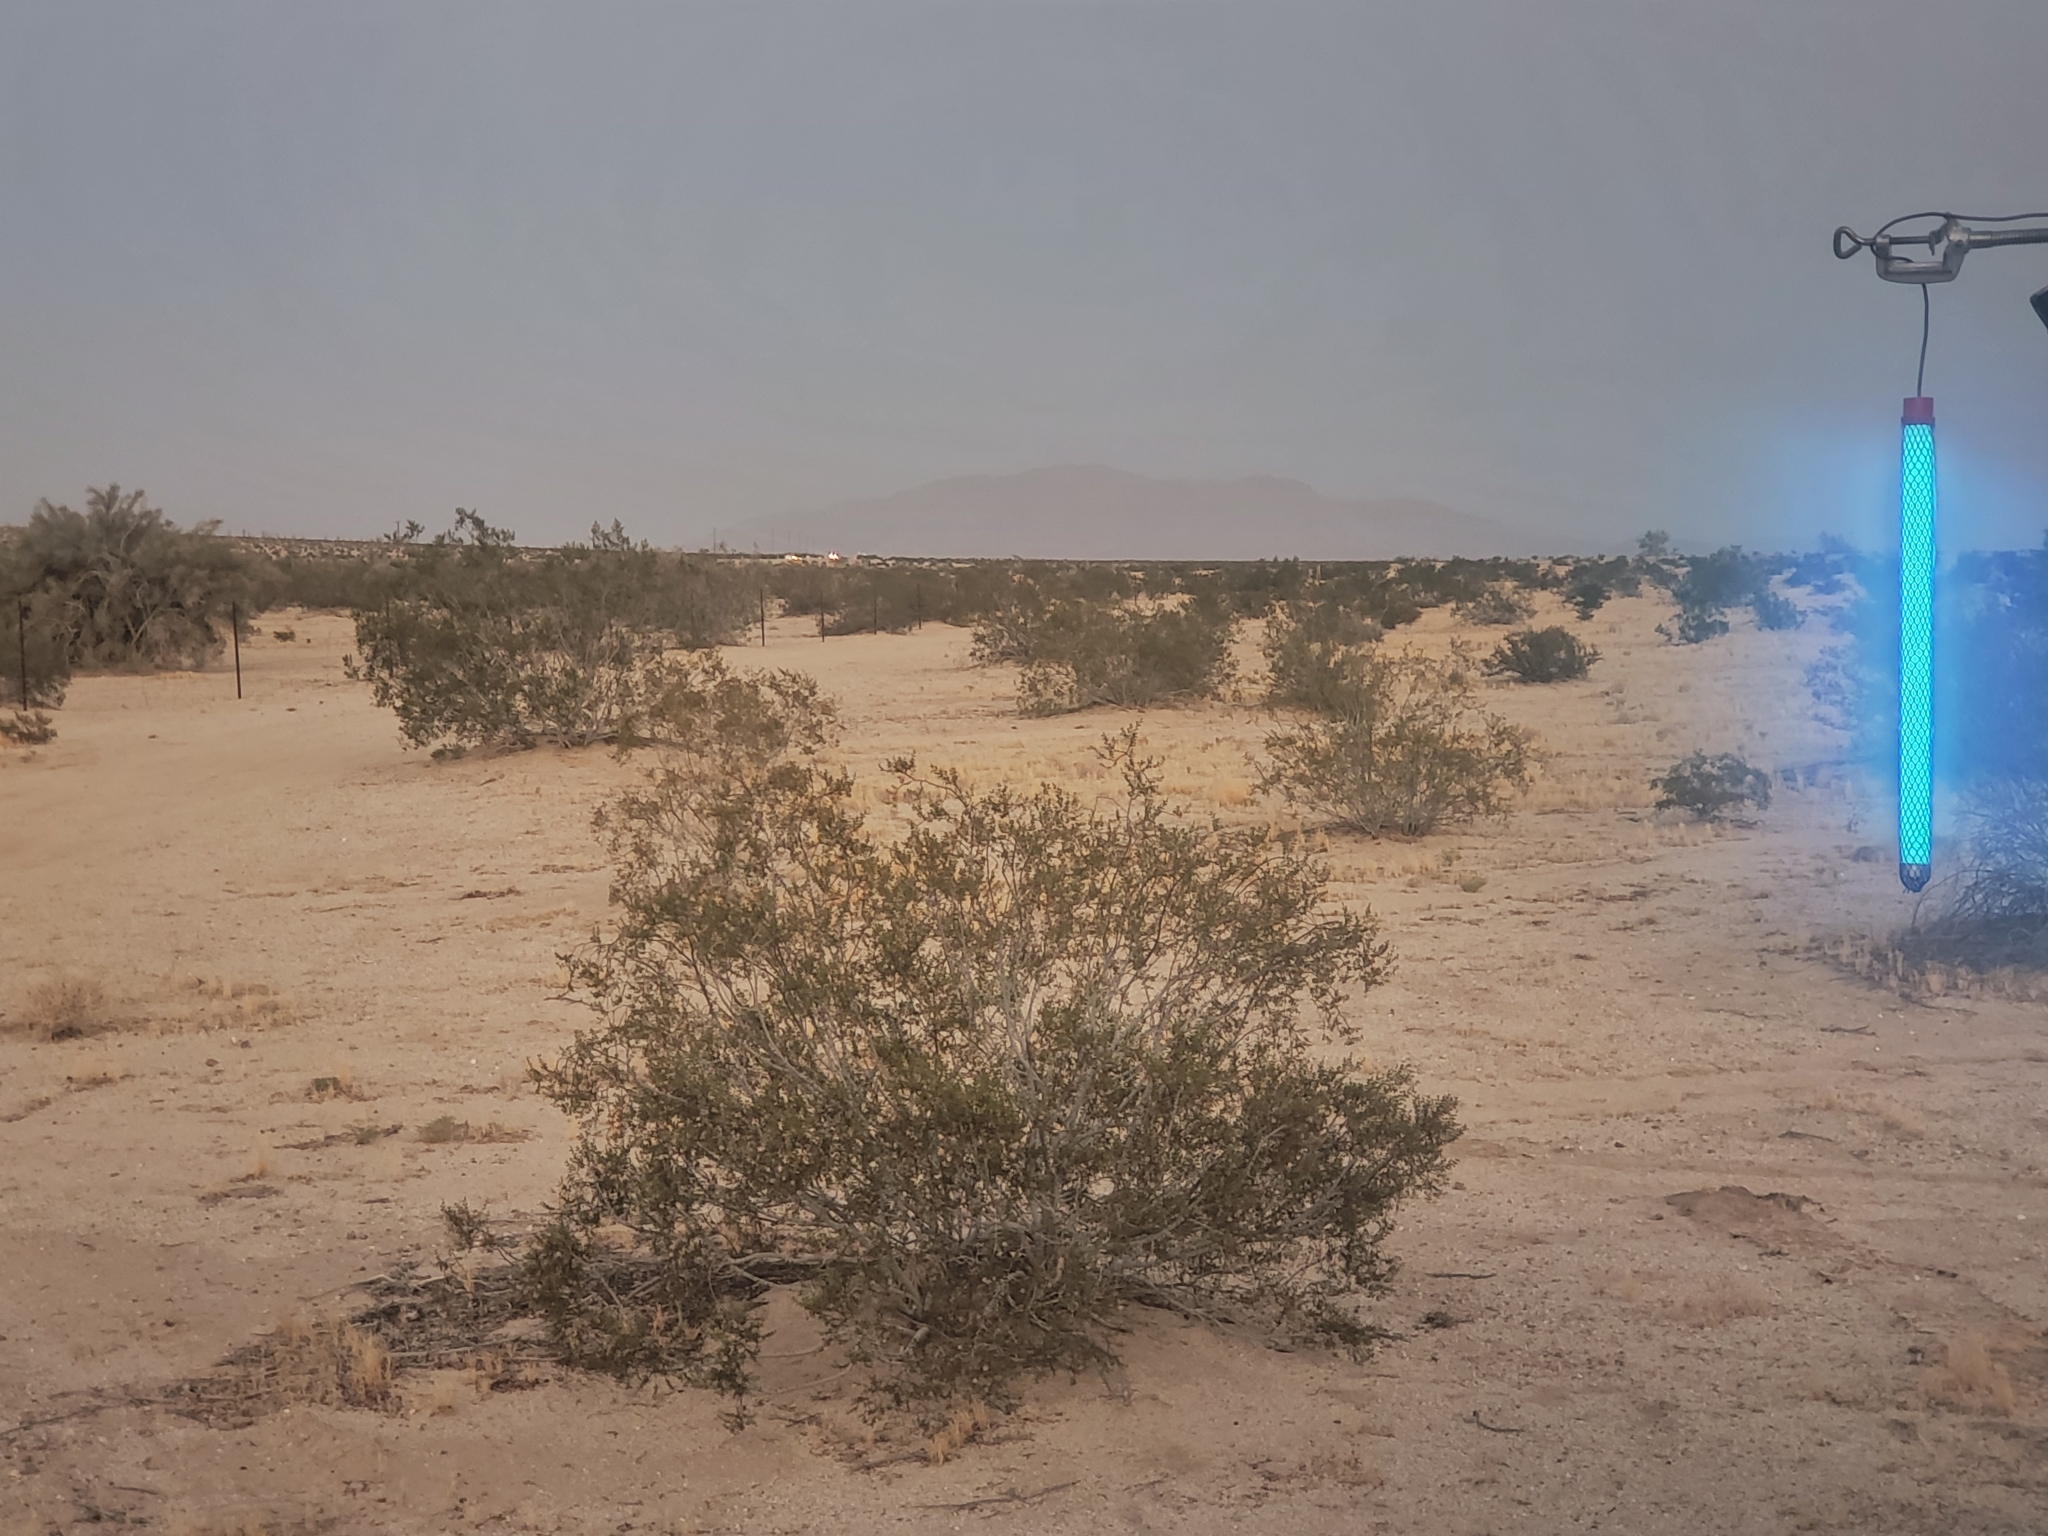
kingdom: Plantae
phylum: Tracheophyta
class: Magnoliopsida
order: Zygophyllales
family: Zygophyllaceae
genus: Larrea
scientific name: Larrea tridentata
